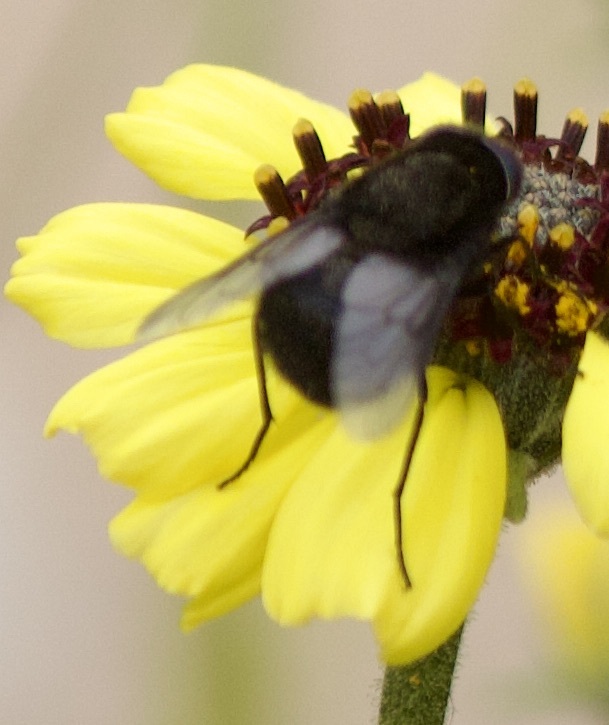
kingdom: Animalia
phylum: Arthropoda
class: Insecta
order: Diptera
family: Tabanidae
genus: Fidena
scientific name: Fidena morio
